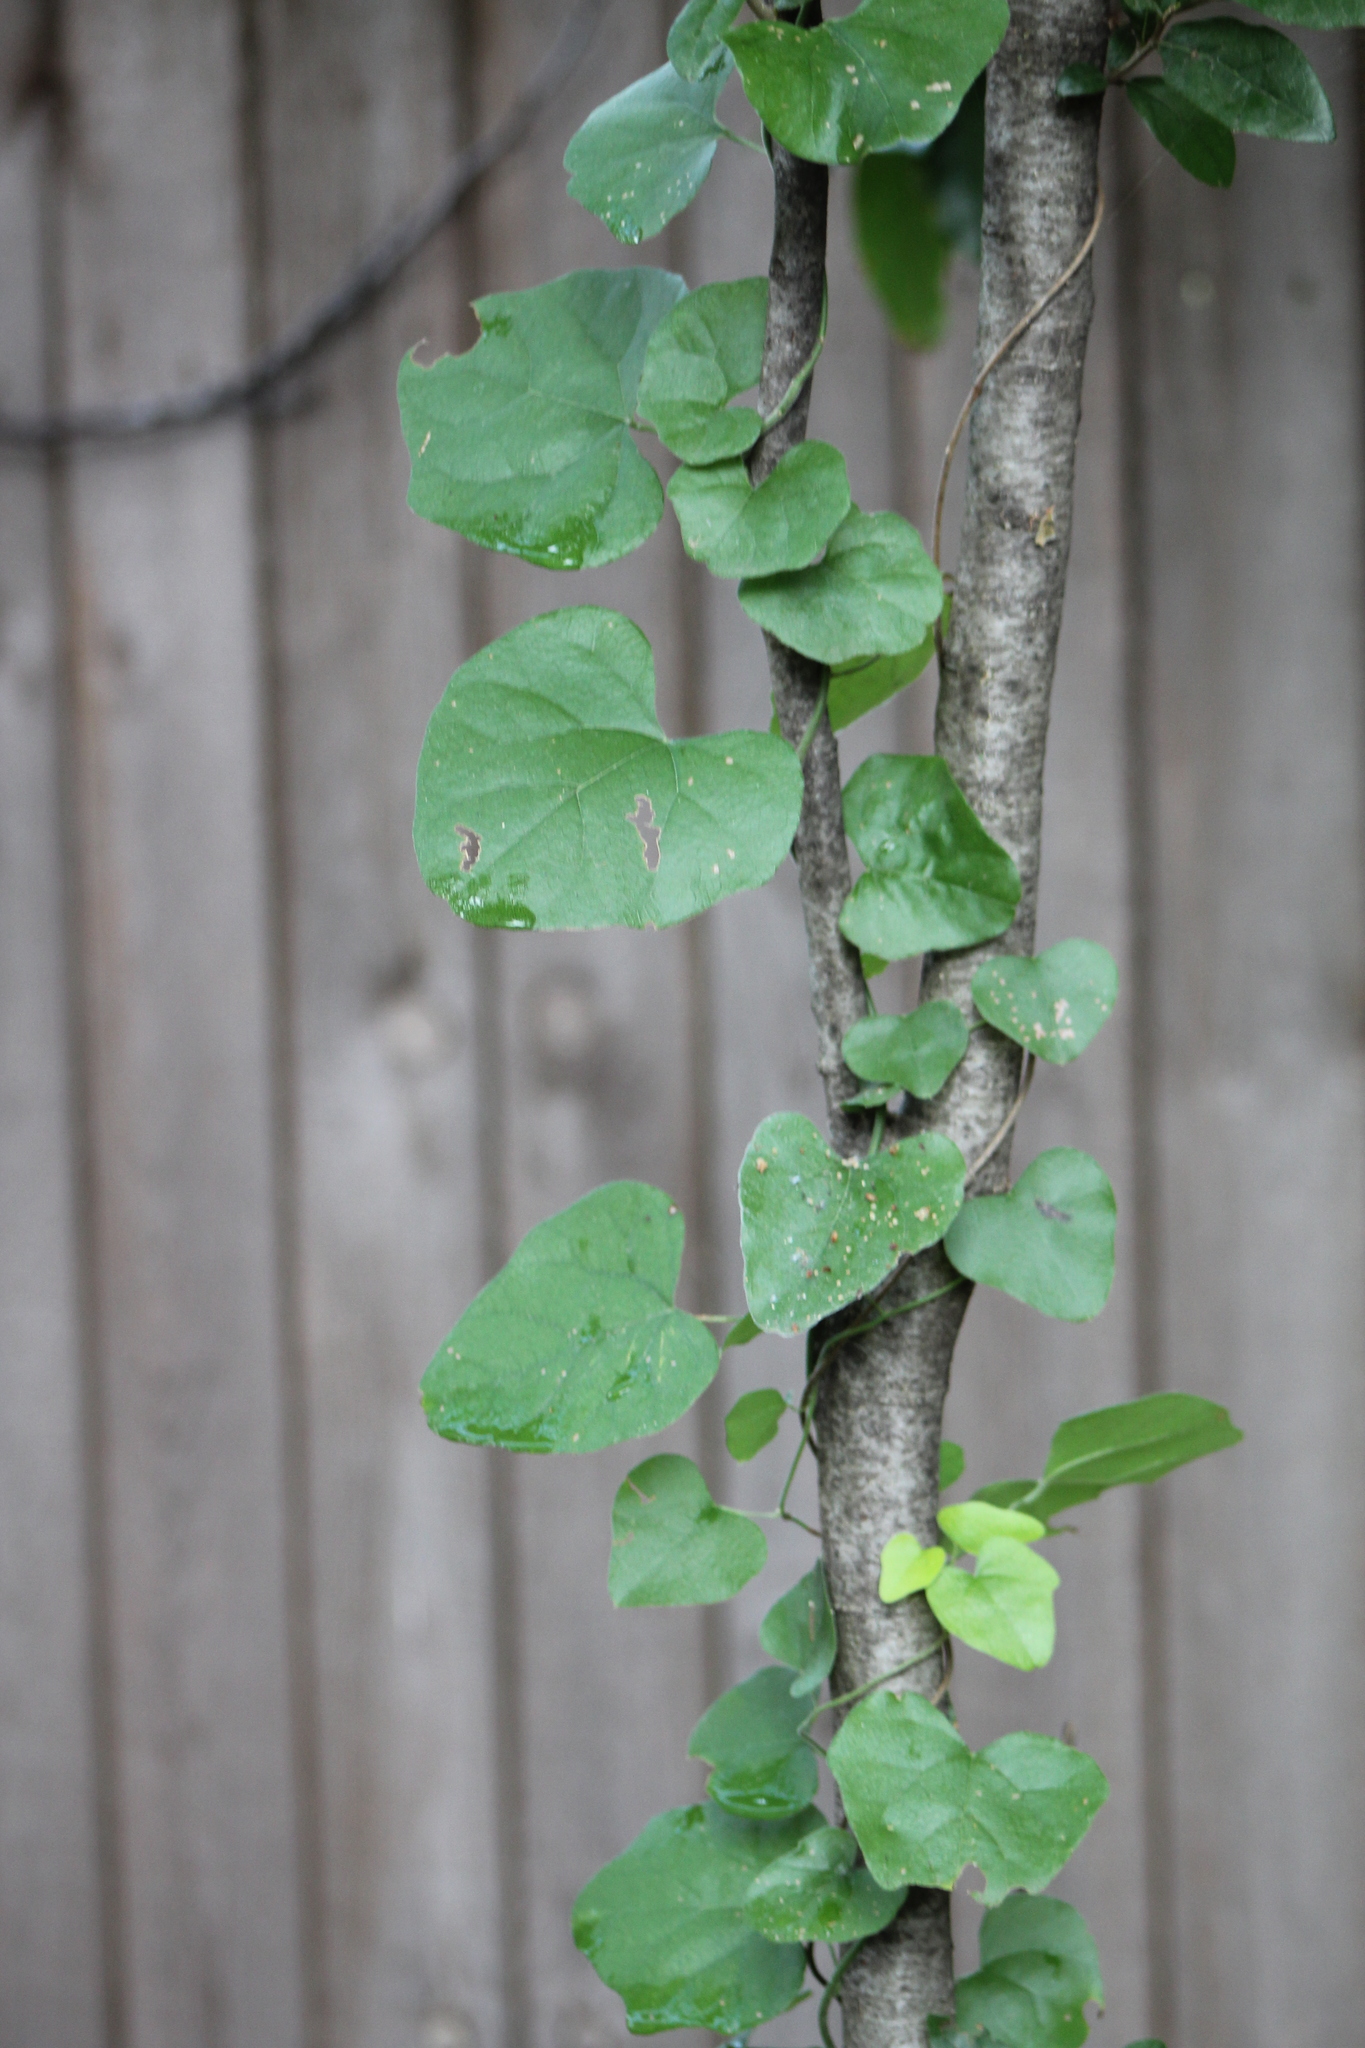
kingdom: Plantae
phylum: Tracheophyta
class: Magnoliopsida
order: Ranunculales
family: Menispermaceae
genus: Cocculus
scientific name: Cocculus carolinus
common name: Carolina moonseed
